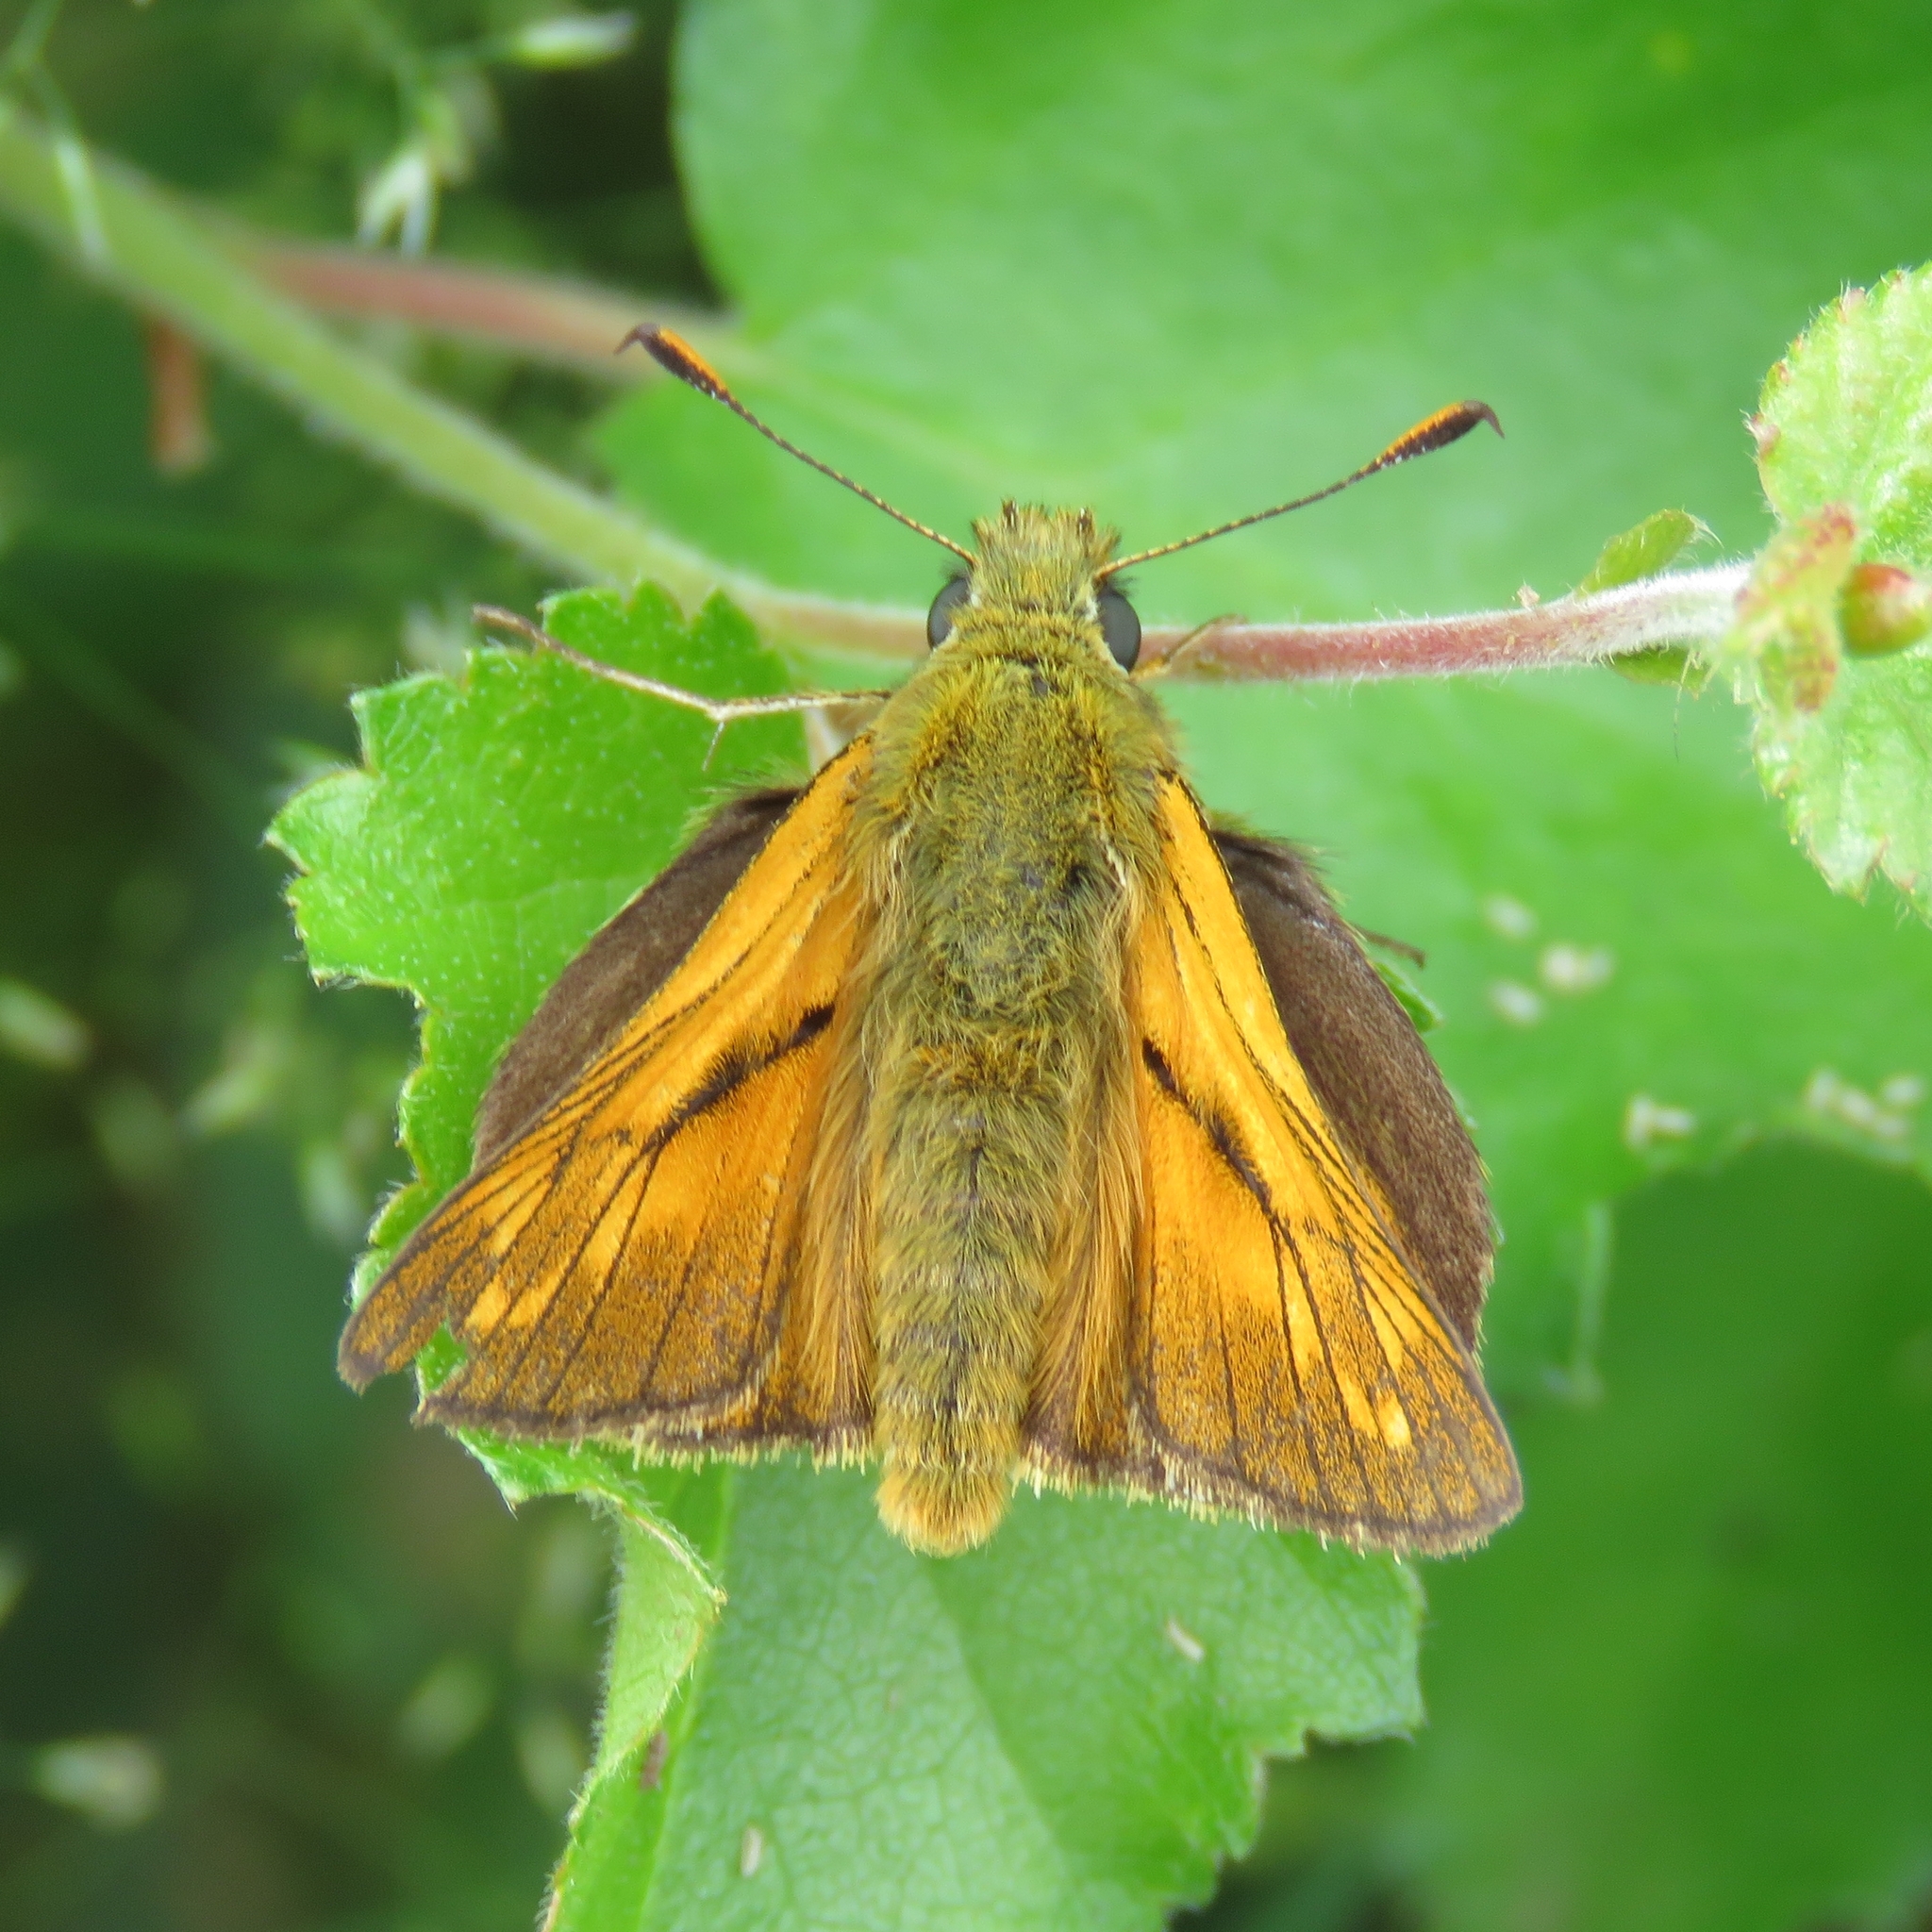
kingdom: Animalia
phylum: Arthropoda
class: Insecta
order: Lepidoptera
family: Hesperiidae
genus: Ochlodes
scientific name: Ochlodes venata
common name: Large skipper
